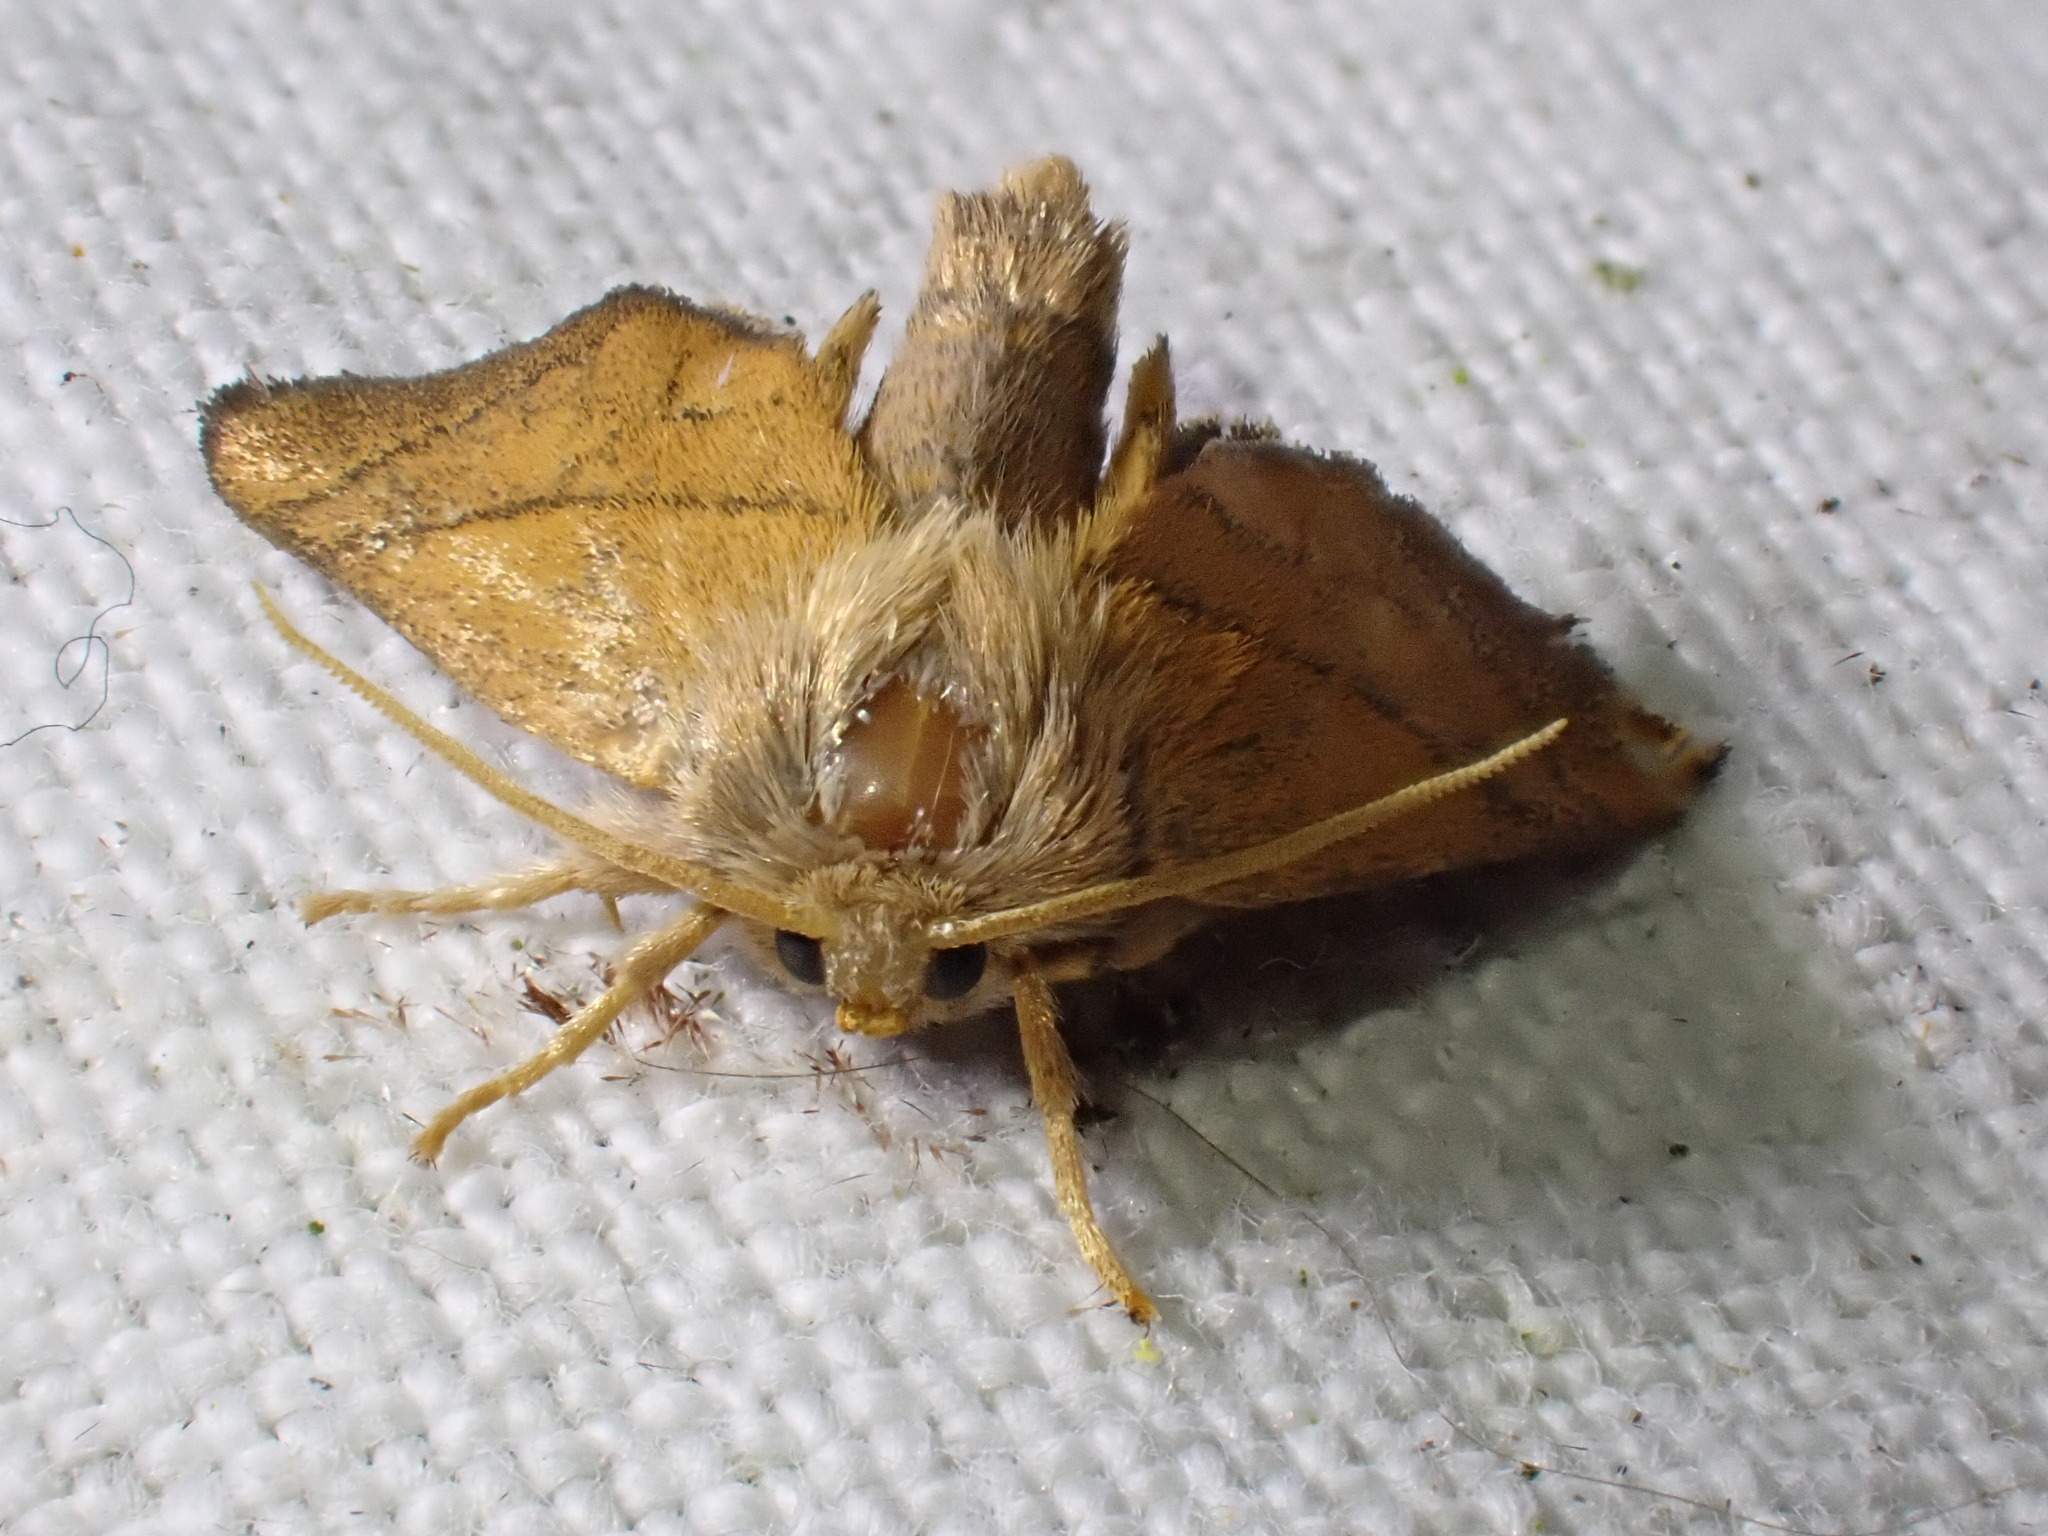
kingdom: Animalia
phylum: Arthropoda
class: Insecta
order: Lepidoptera
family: Limacodidae
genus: Apoda
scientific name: Apoda limacodes
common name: Festoon
